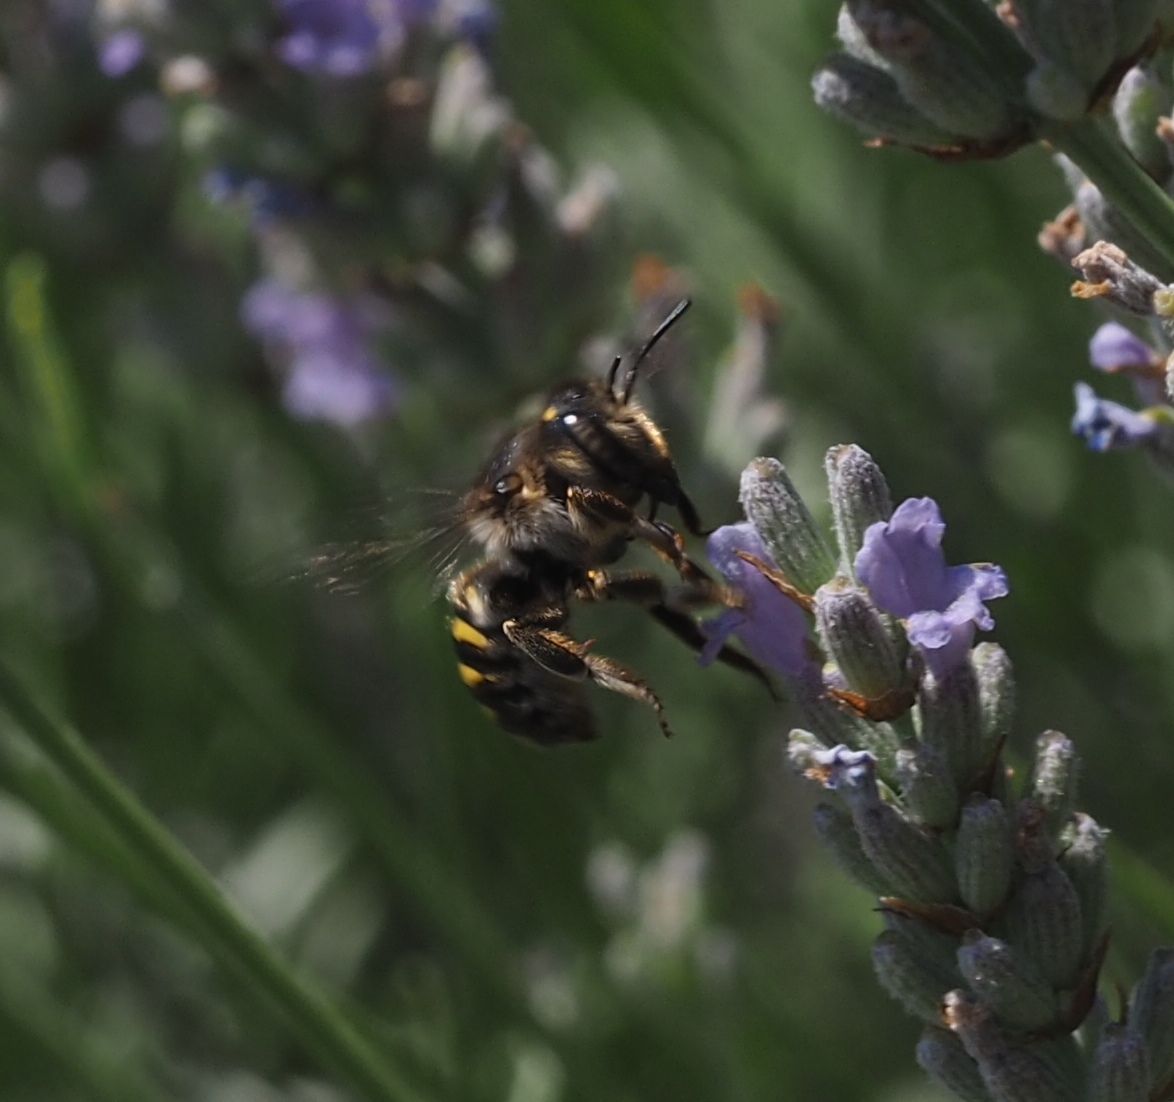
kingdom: Animalia
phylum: Arthropoda
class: Insecta
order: Hymenoptera
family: Megachilidae
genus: Anthidium
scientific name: Anthidium septemspinosum
